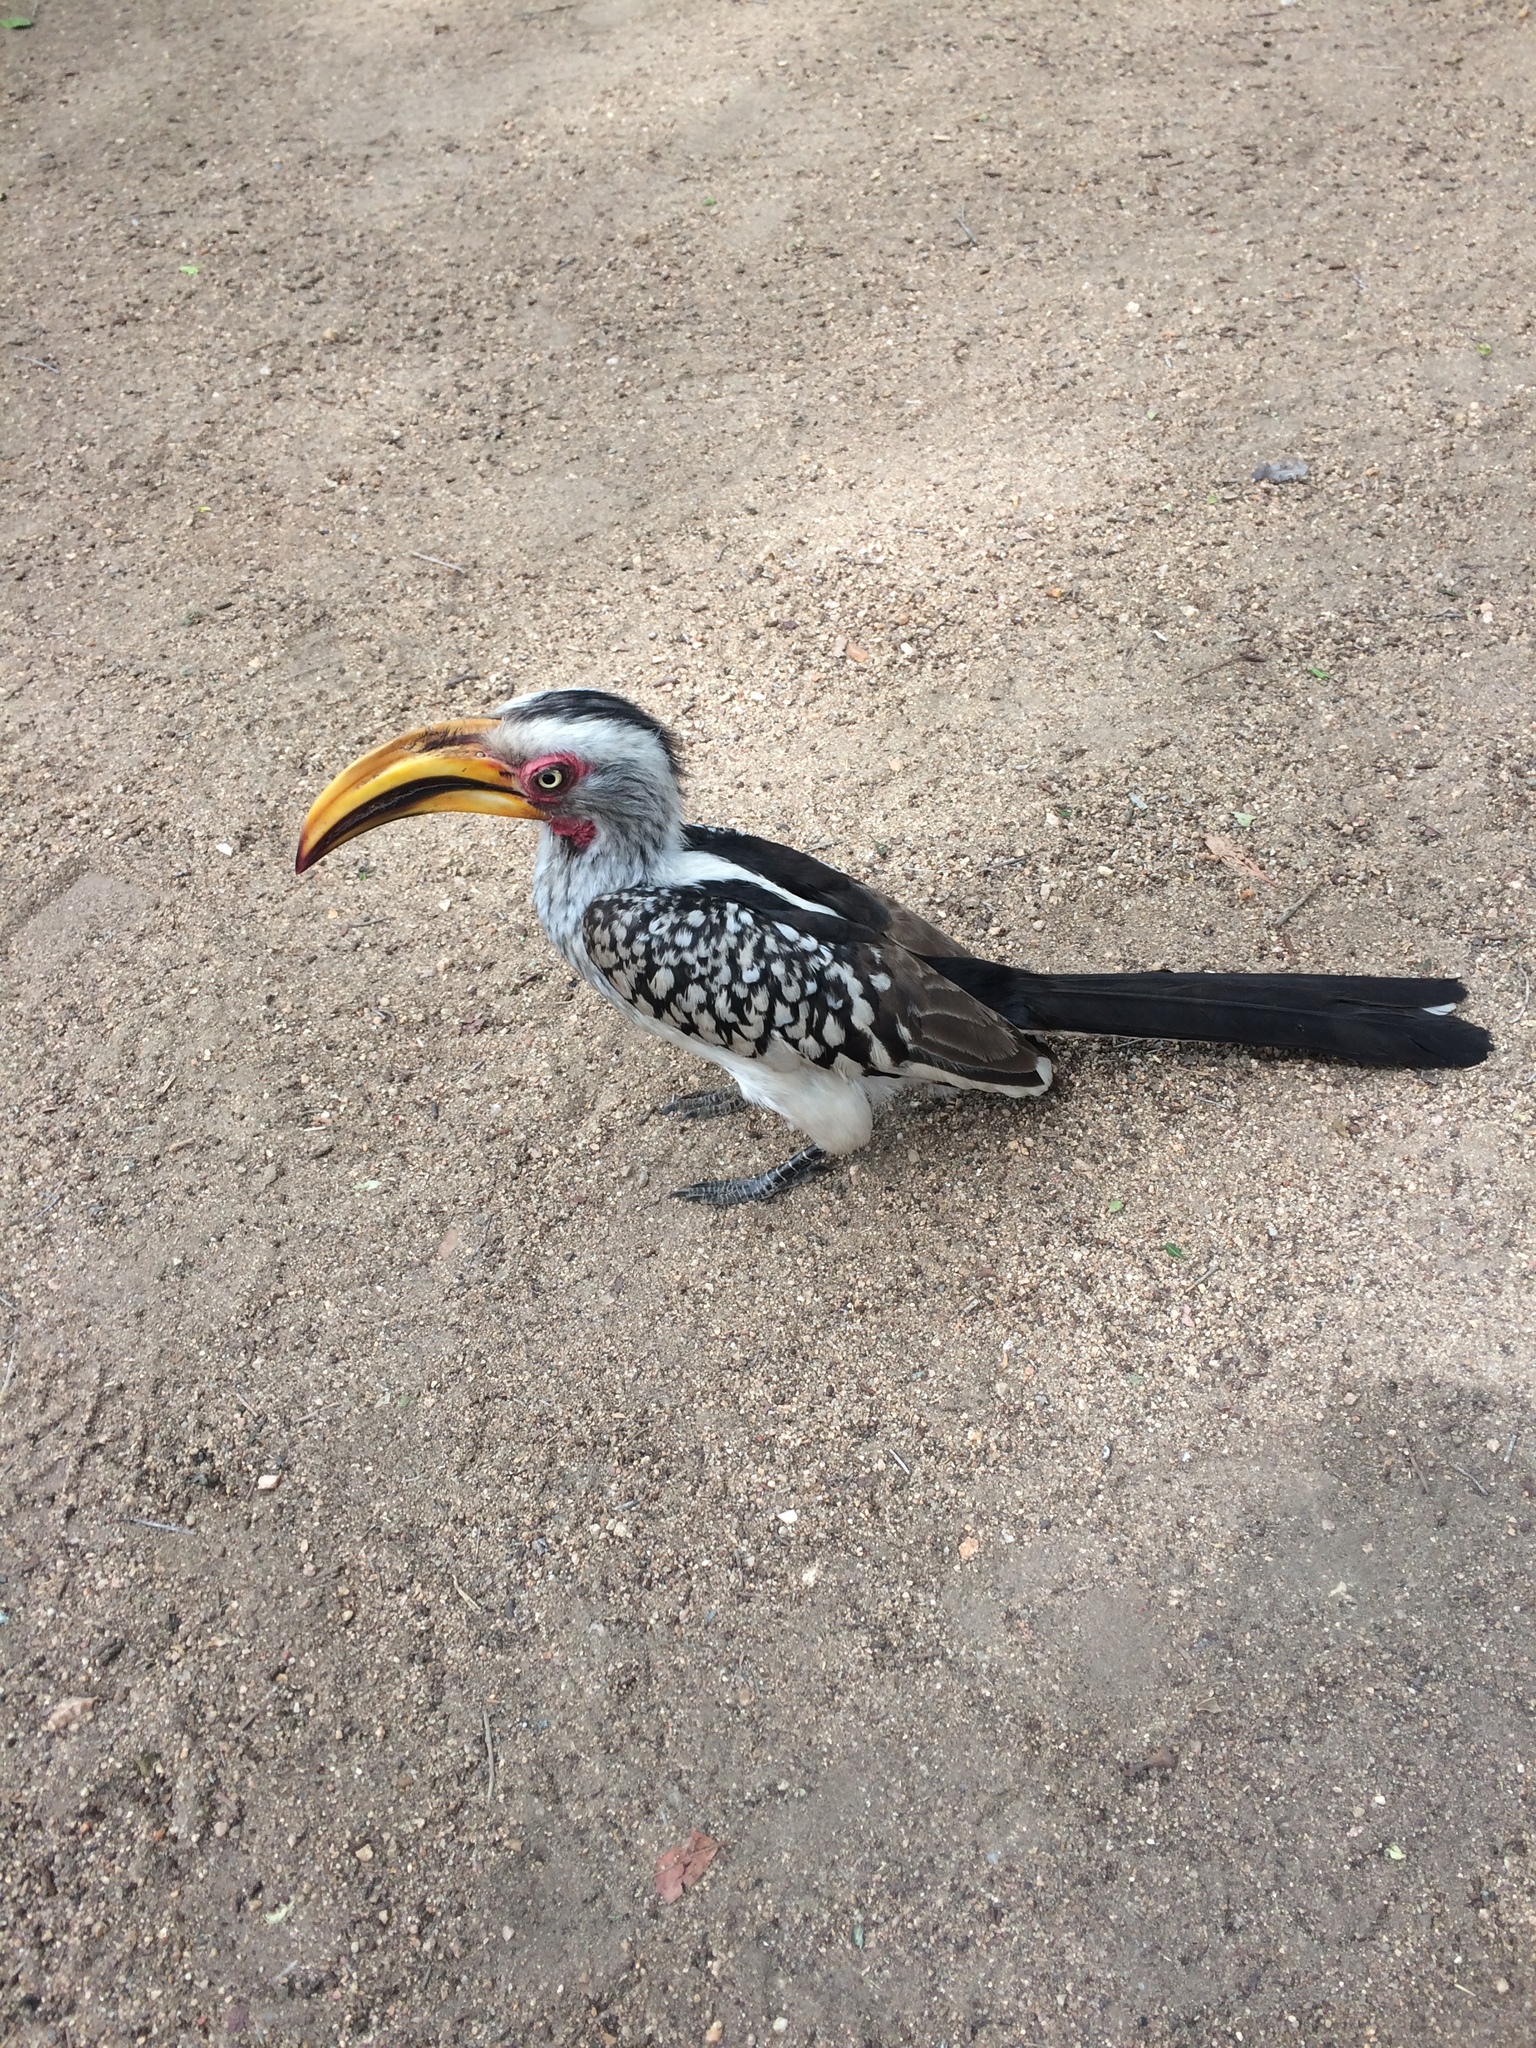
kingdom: Animalia
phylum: Chordata
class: Aves
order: Bucerotiformes
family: Bucerotidae
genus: Tockus
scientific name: Tockus leucomelas
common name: Southern yellow-billed hornbill
